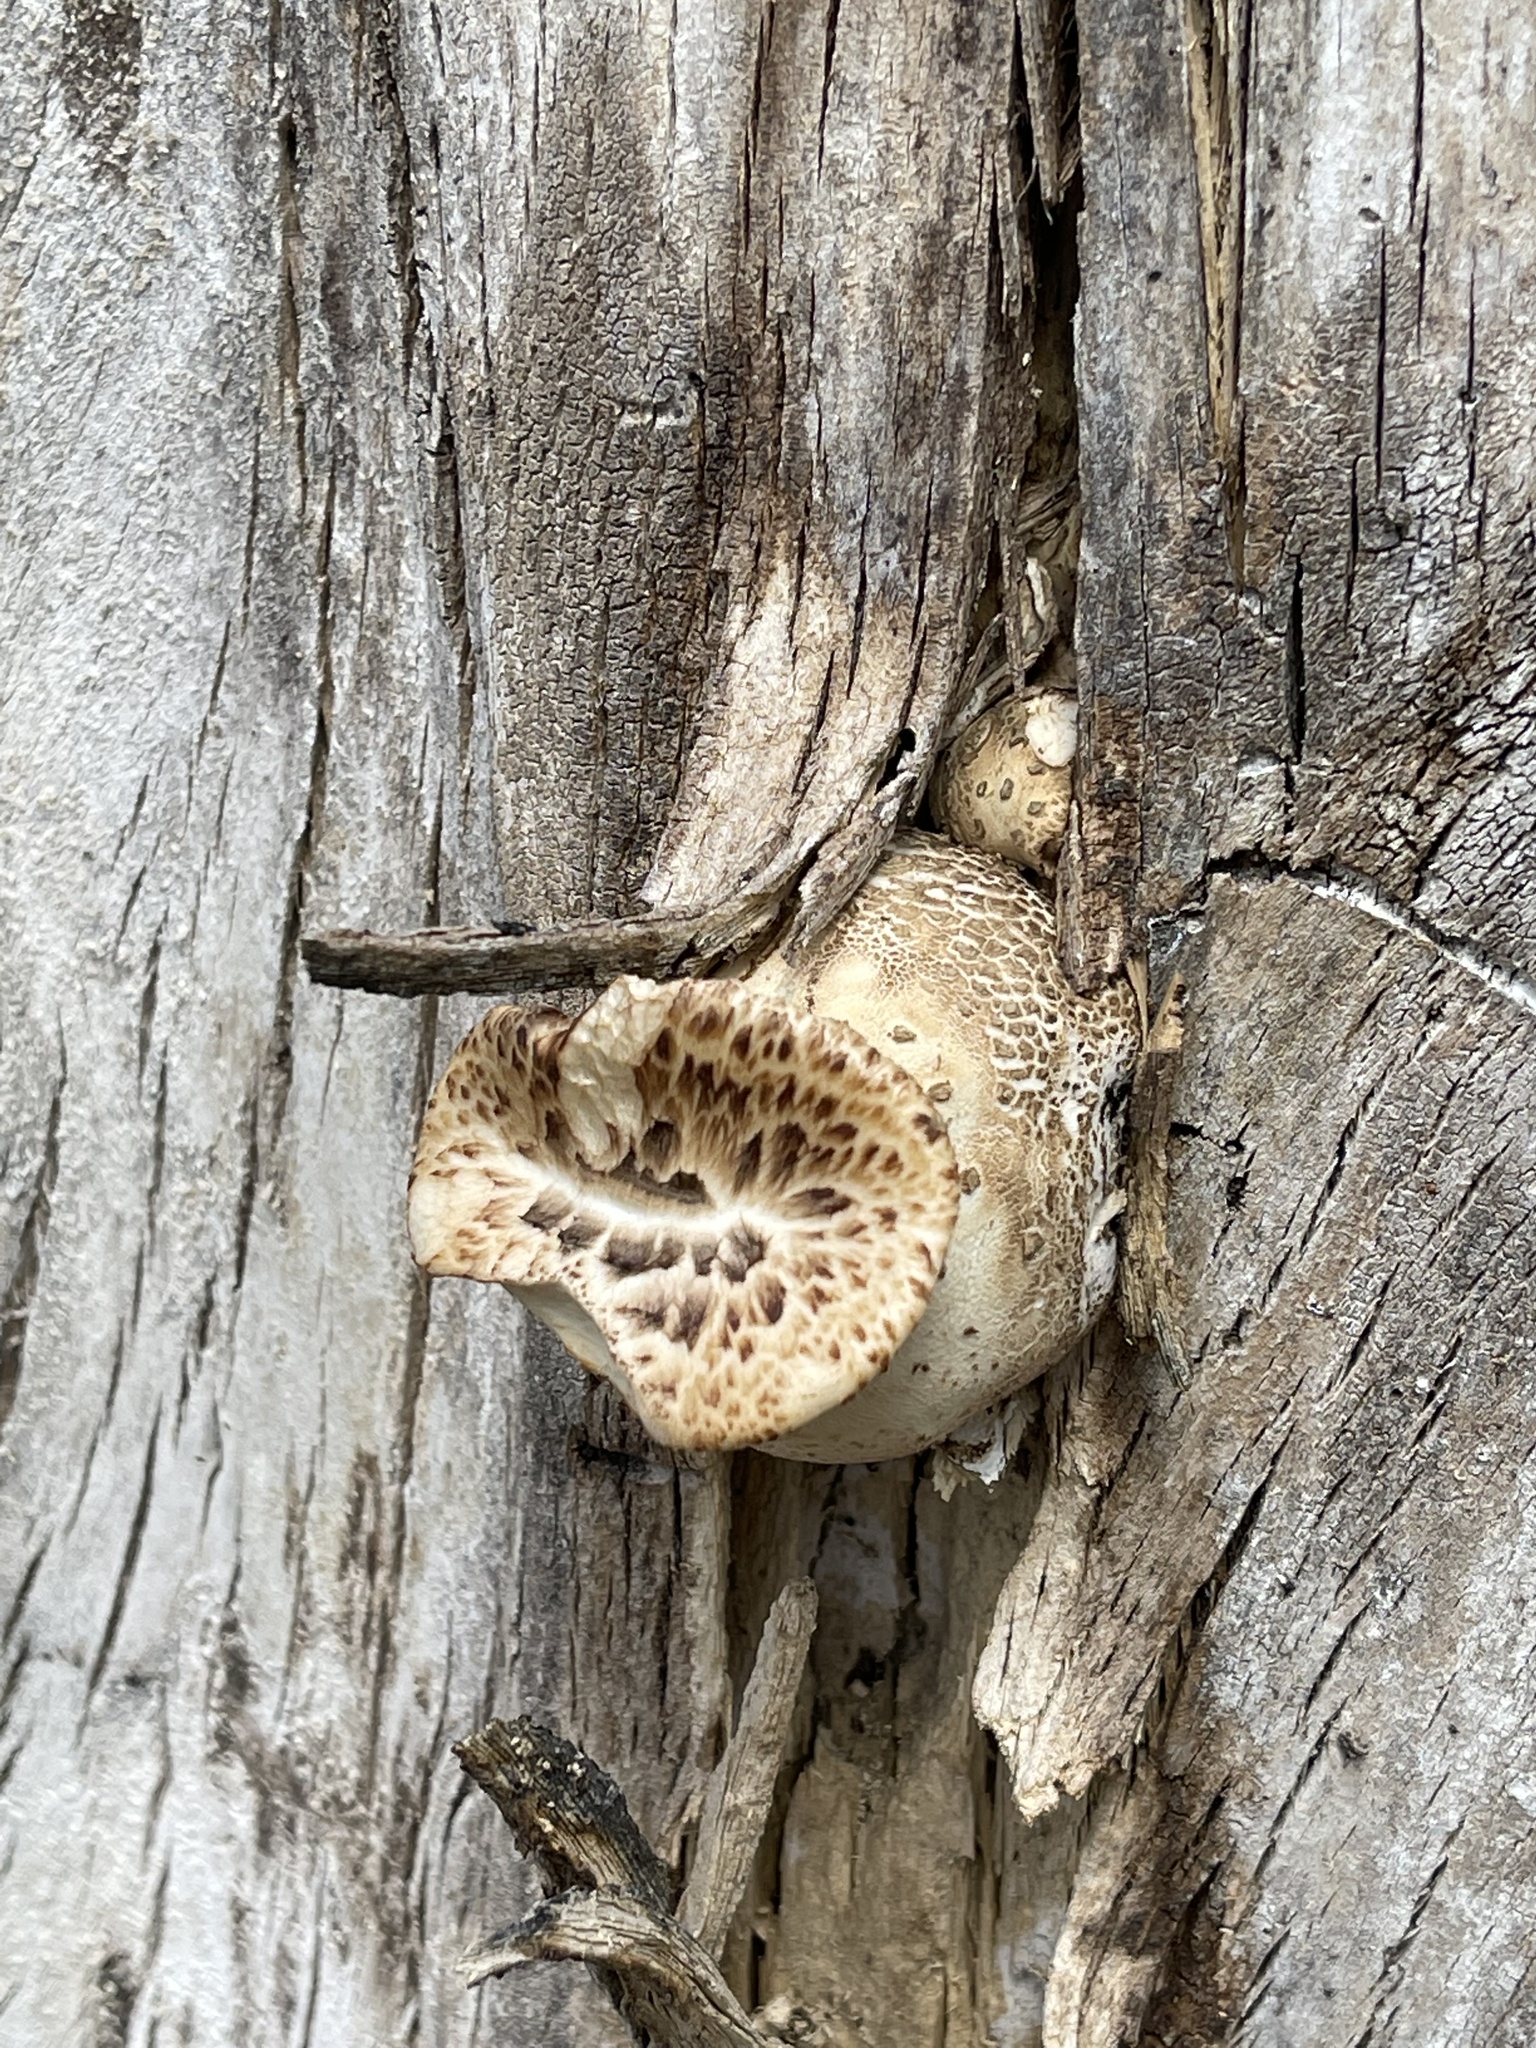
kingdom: Fungi
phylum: Basidiomycota
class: Agaricomycetes
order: Polyporales
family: Polyporaceae
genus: Cerioporus
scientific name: Cerioporus squamosus
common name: Dryad's saddle
